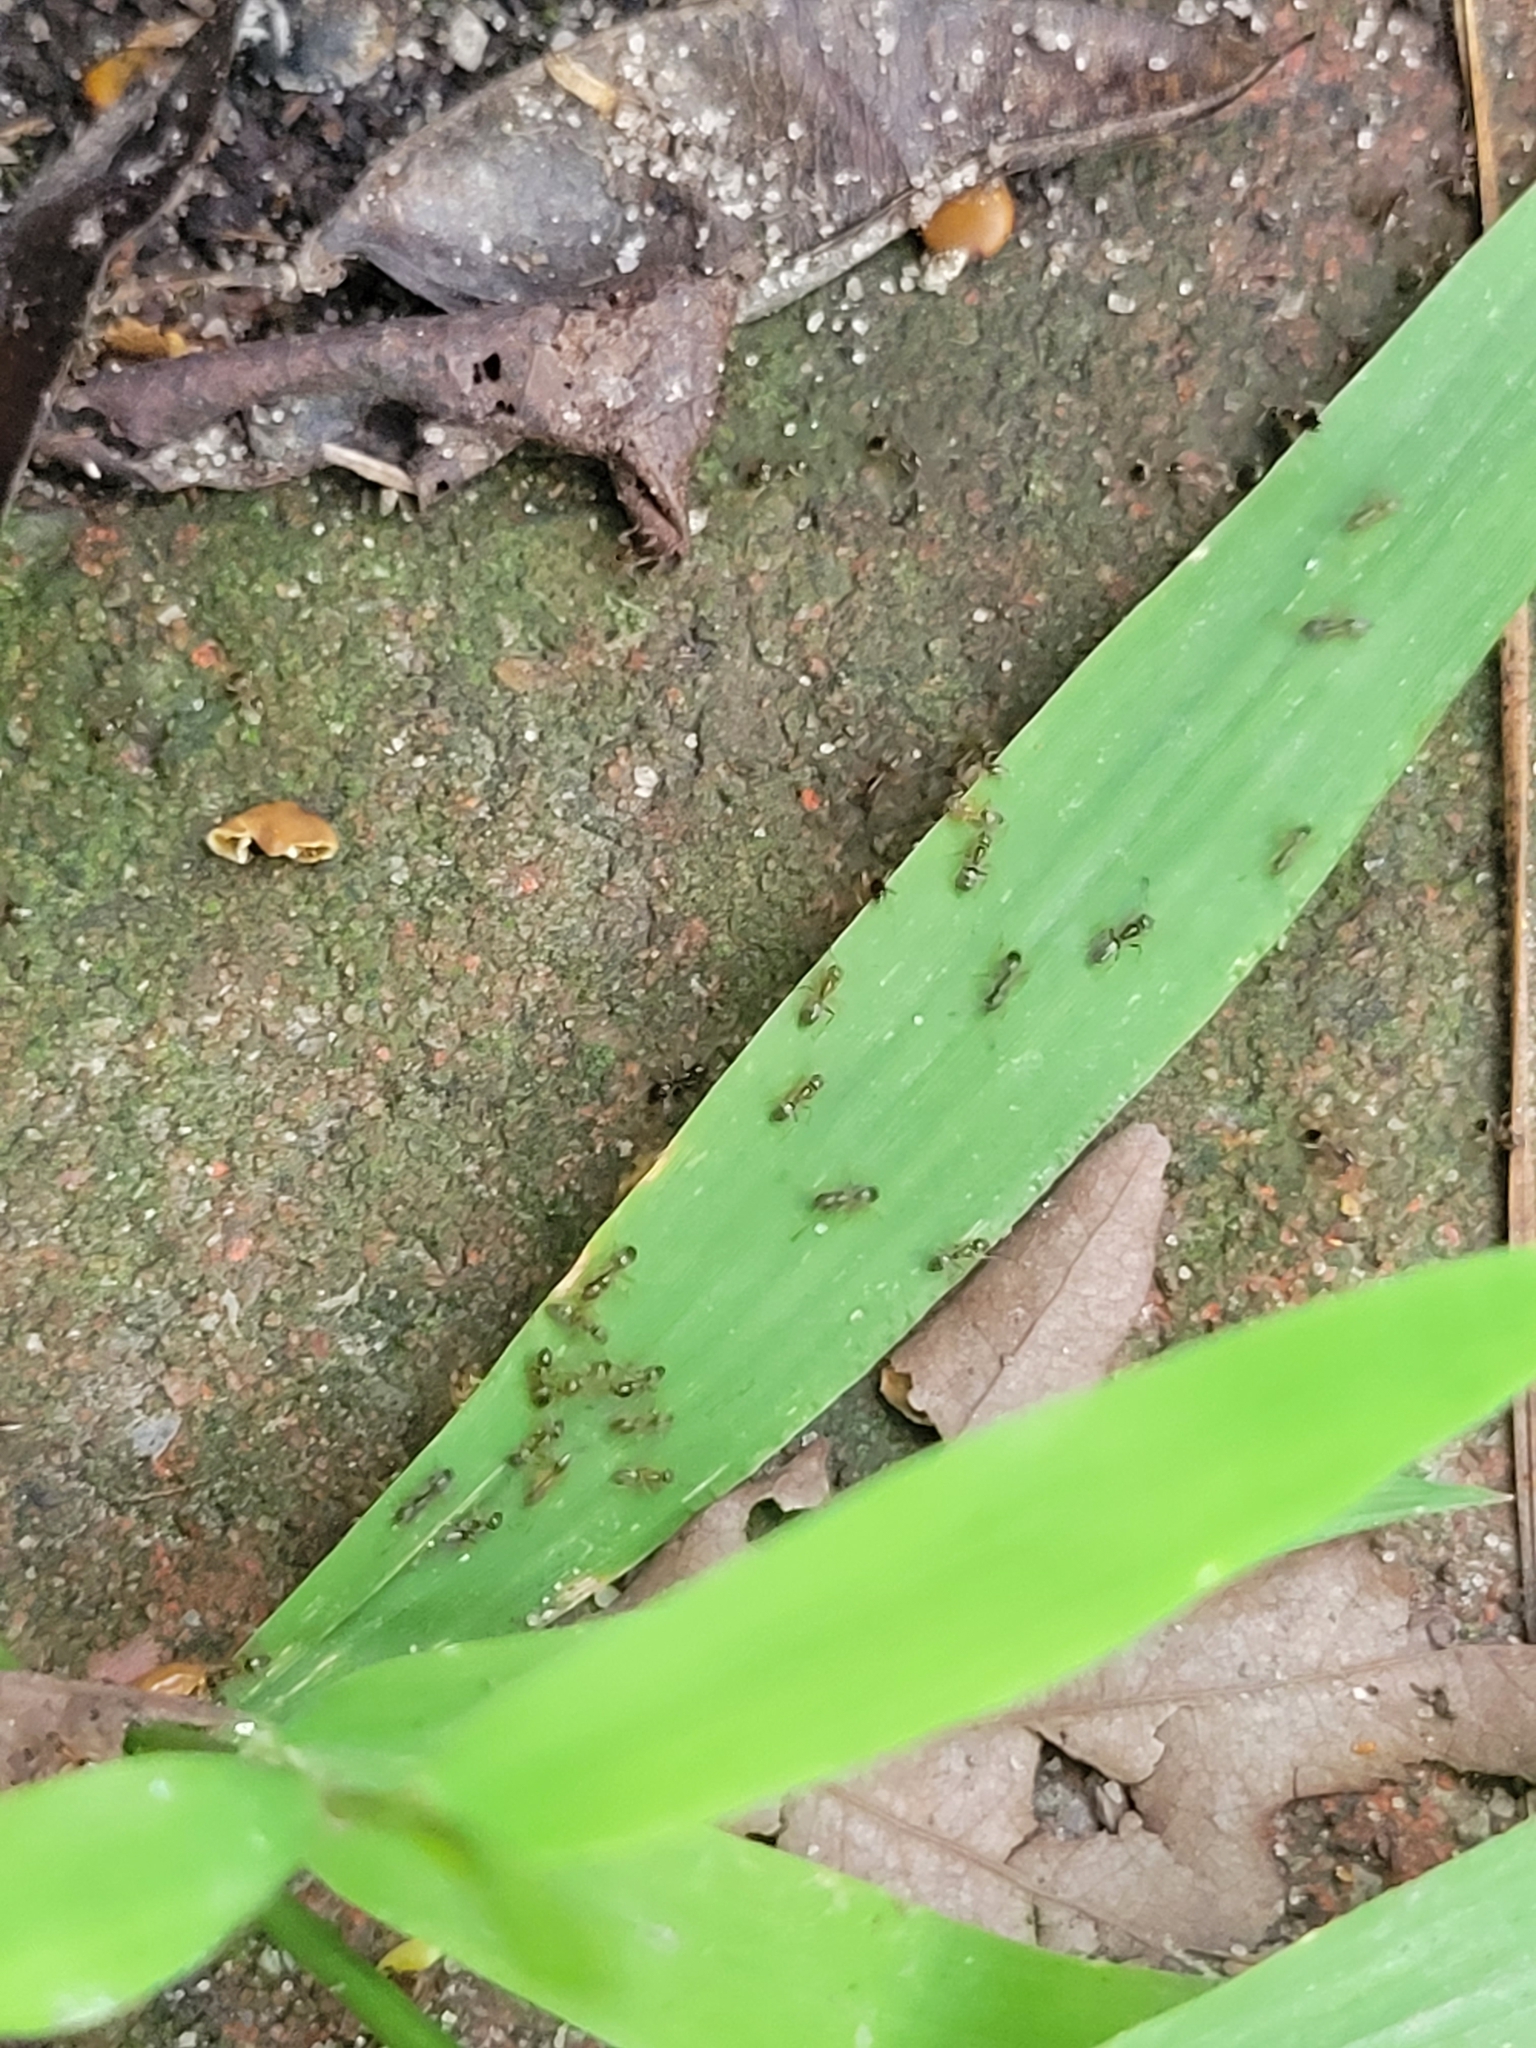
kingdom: Animalia
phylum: Arthropoda
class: Insecta
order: Hymenoptera
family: Formicidae
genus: Tapinoma
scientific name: Tapinoma sessile
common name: Odorous house ant
